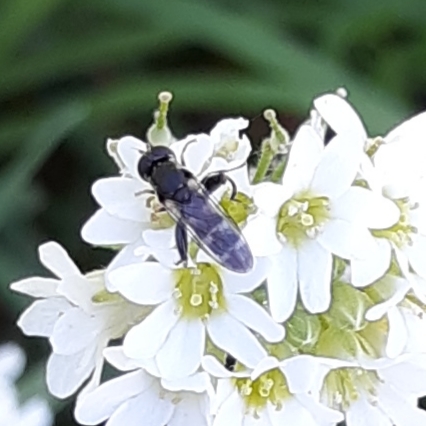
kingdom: Animalia
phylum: Arthropoda
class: Insecta
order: Diptera
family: Syrphidae
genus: Syritta
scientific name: Syritta pipiens
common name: Hover fly
